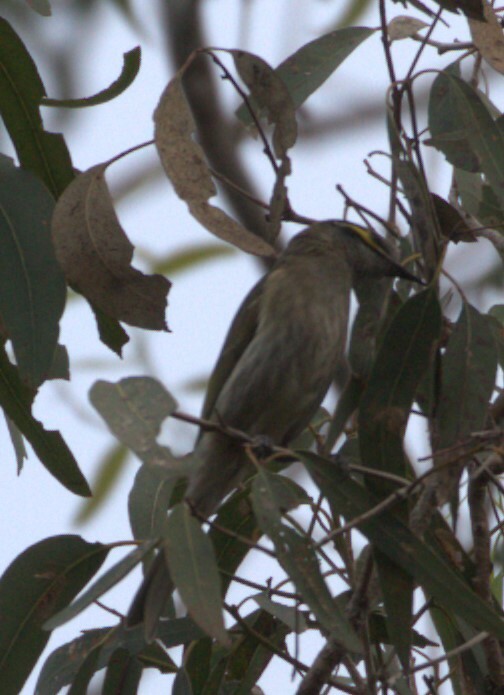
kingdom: Animalia
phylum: Chordata
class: Aves
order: Passeriformes
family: Meliphagidae
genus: Caligavis
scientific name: Caligavis chrysops
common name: Yellow-faced honeyeater
